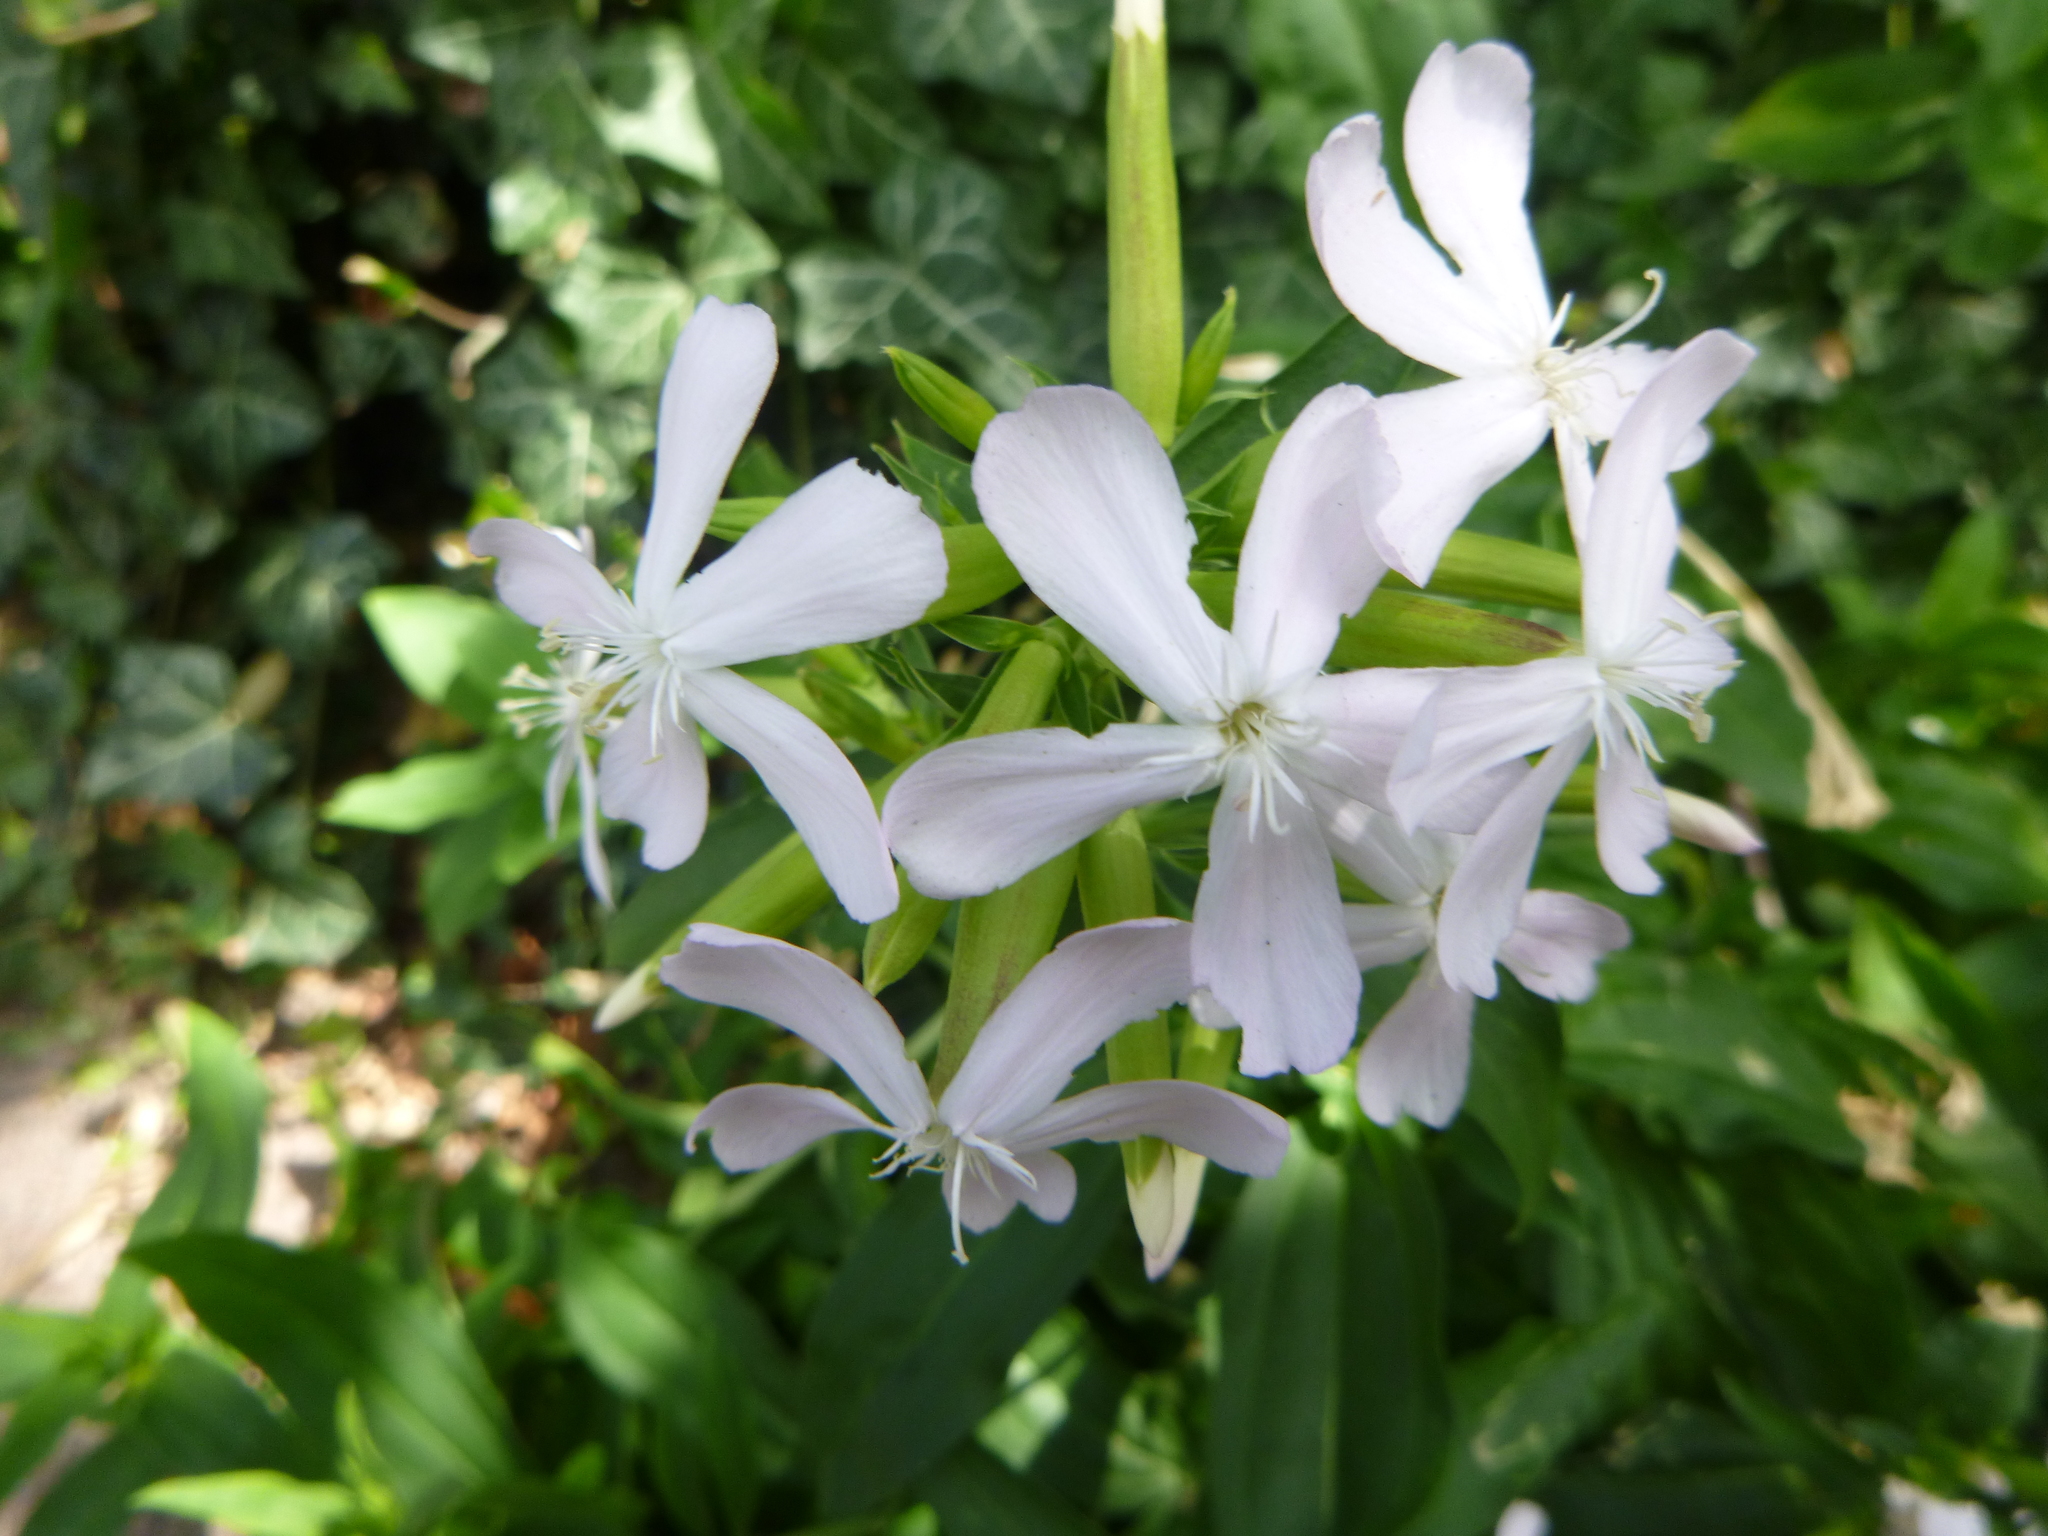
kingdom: Plantae
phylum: Tracheophyta
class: Magnoliopsida
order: Caryophyllales
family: Caryophyllaceae
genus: Saponaria
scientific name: Saponaria officinalis
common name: Soapwort
